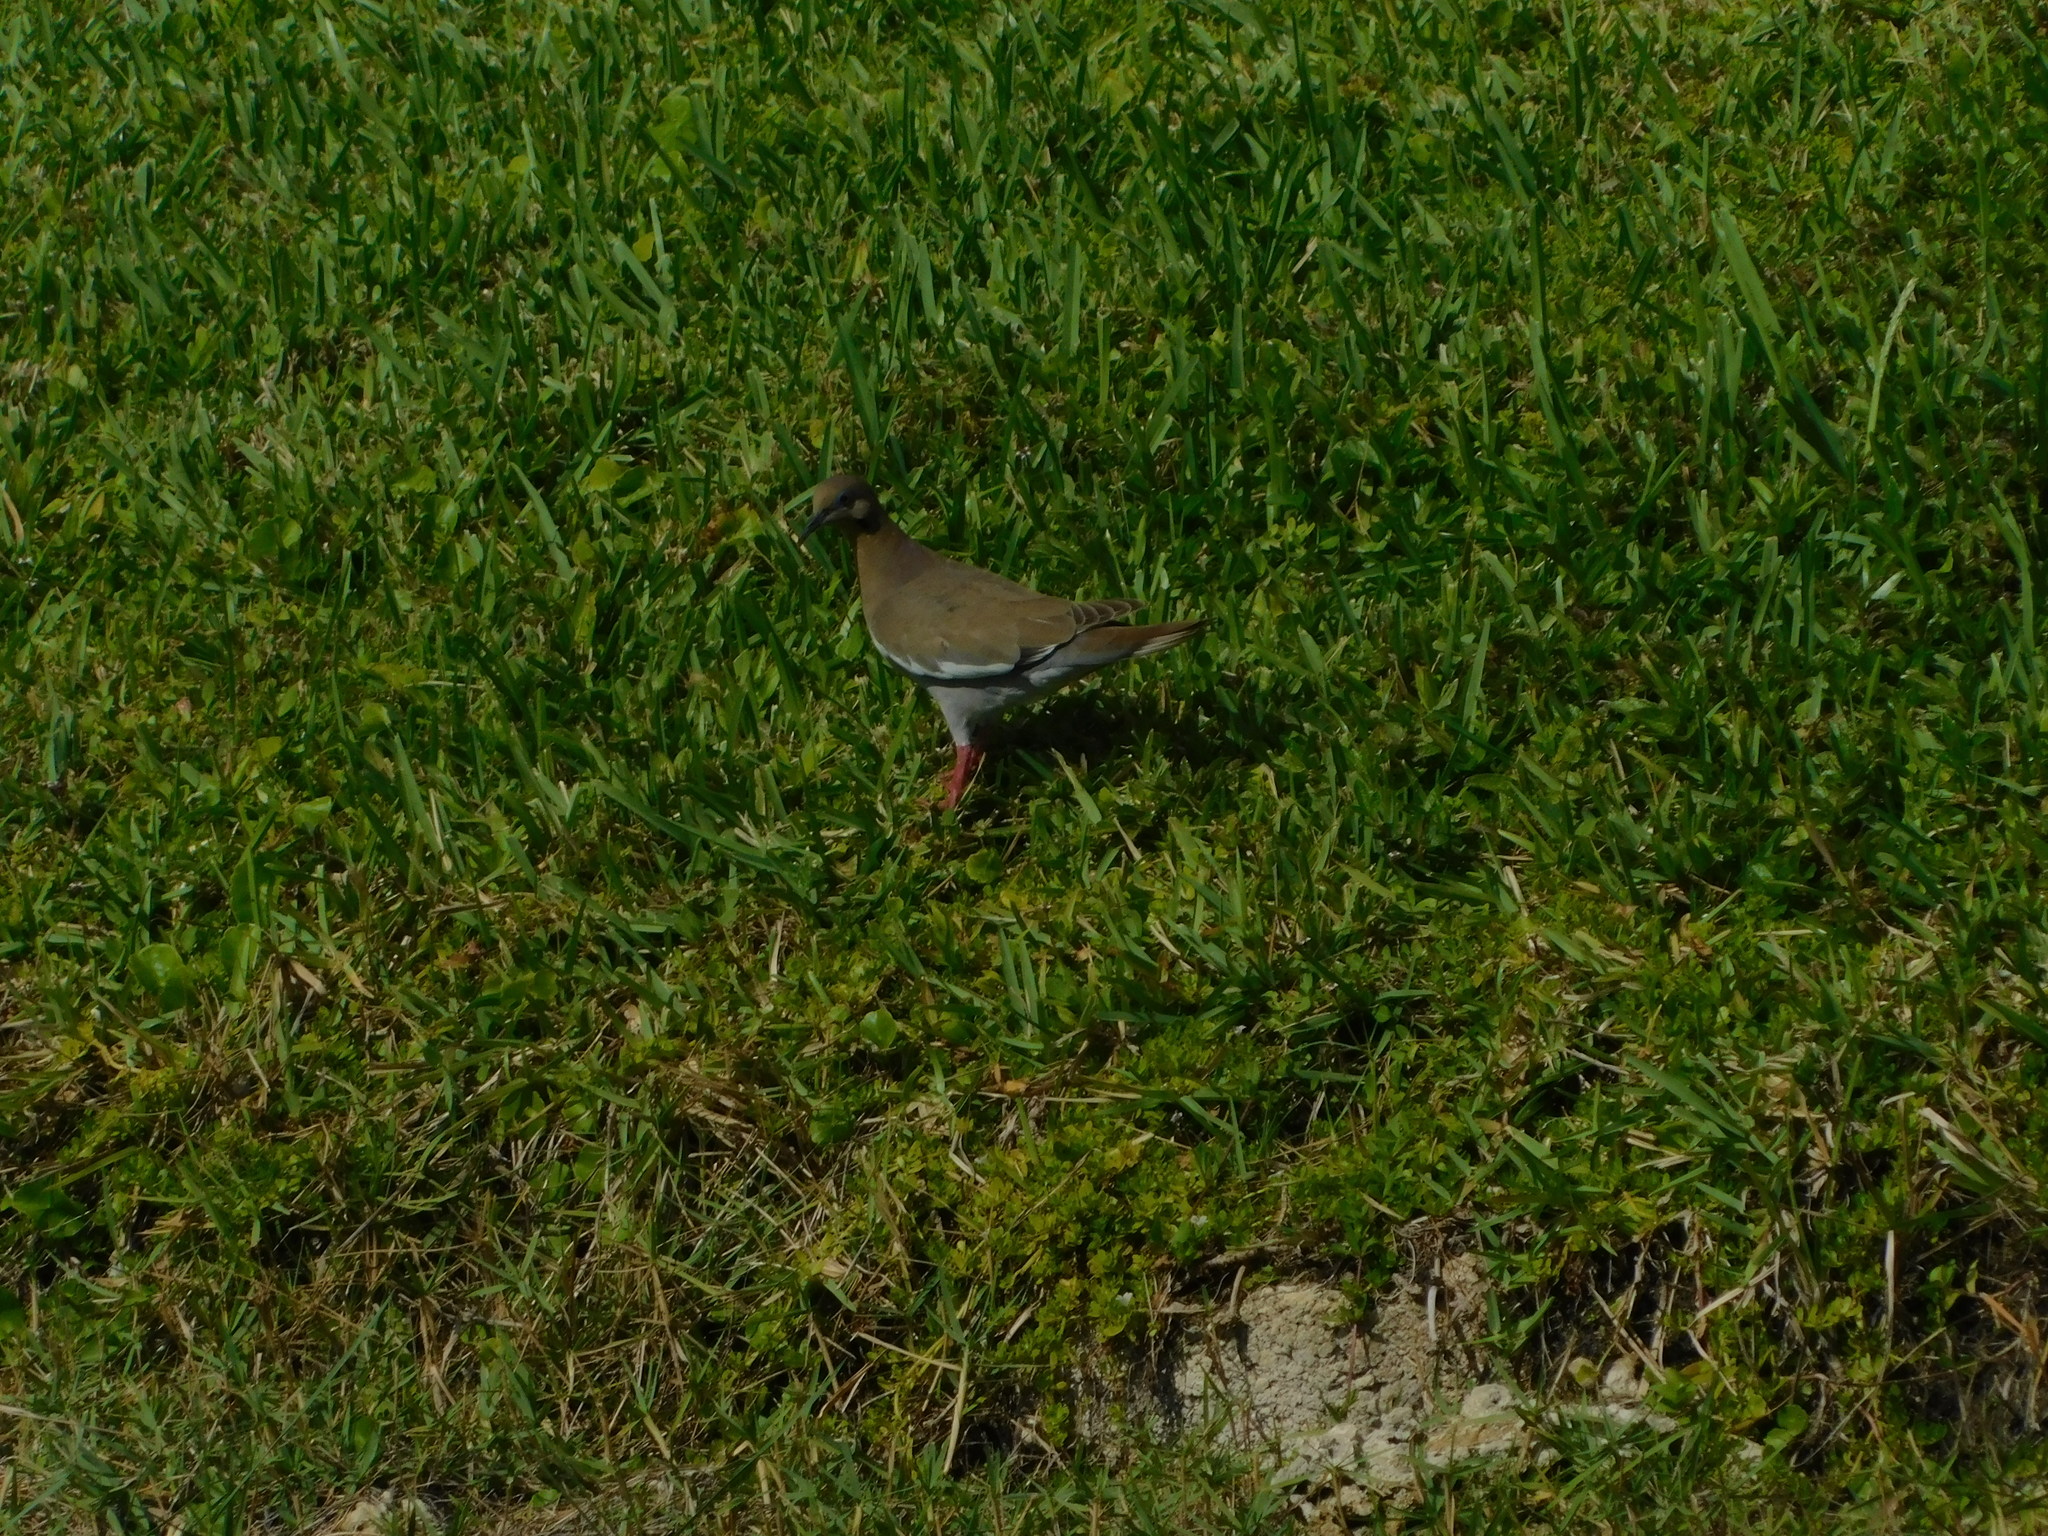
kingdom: Animalia
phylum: Chordata
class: Aves
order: Columbiformes
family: Columbidae
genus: Zenaida
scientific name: Zenaida asiatica
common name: White-winged dove
